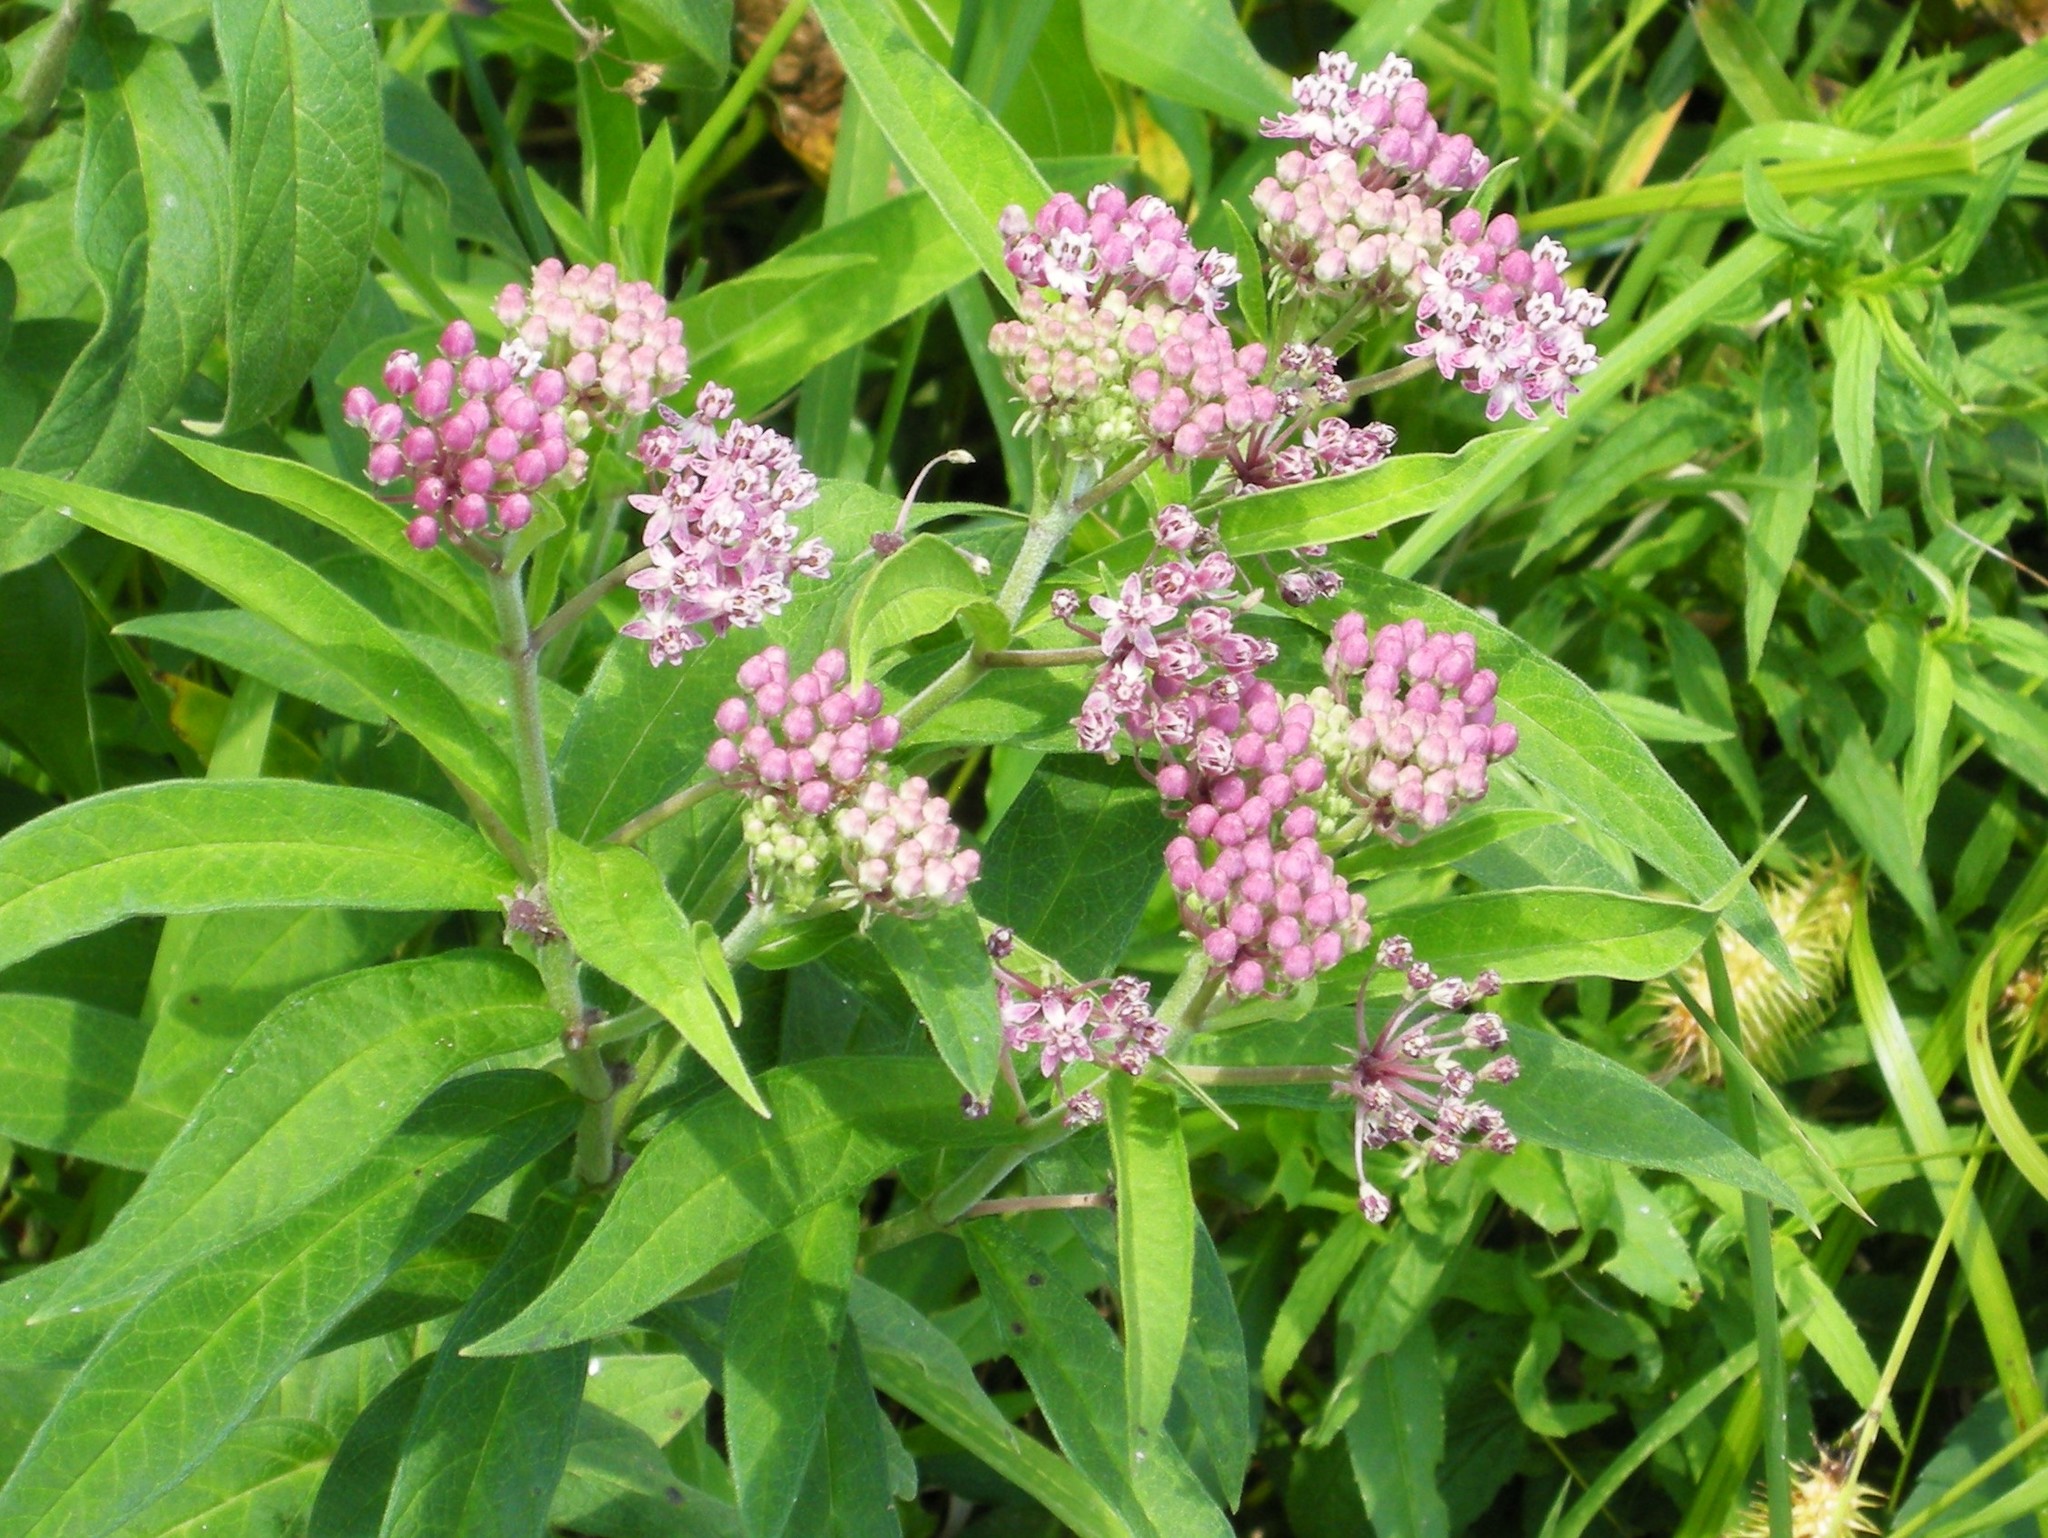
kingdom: Plantae
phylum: Tracheophyta
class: Magnoliopsida
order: Gentianales
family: Apocynaceae
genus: Asclepias
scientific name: Asclepias incarnata
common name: Swamp milkweed
